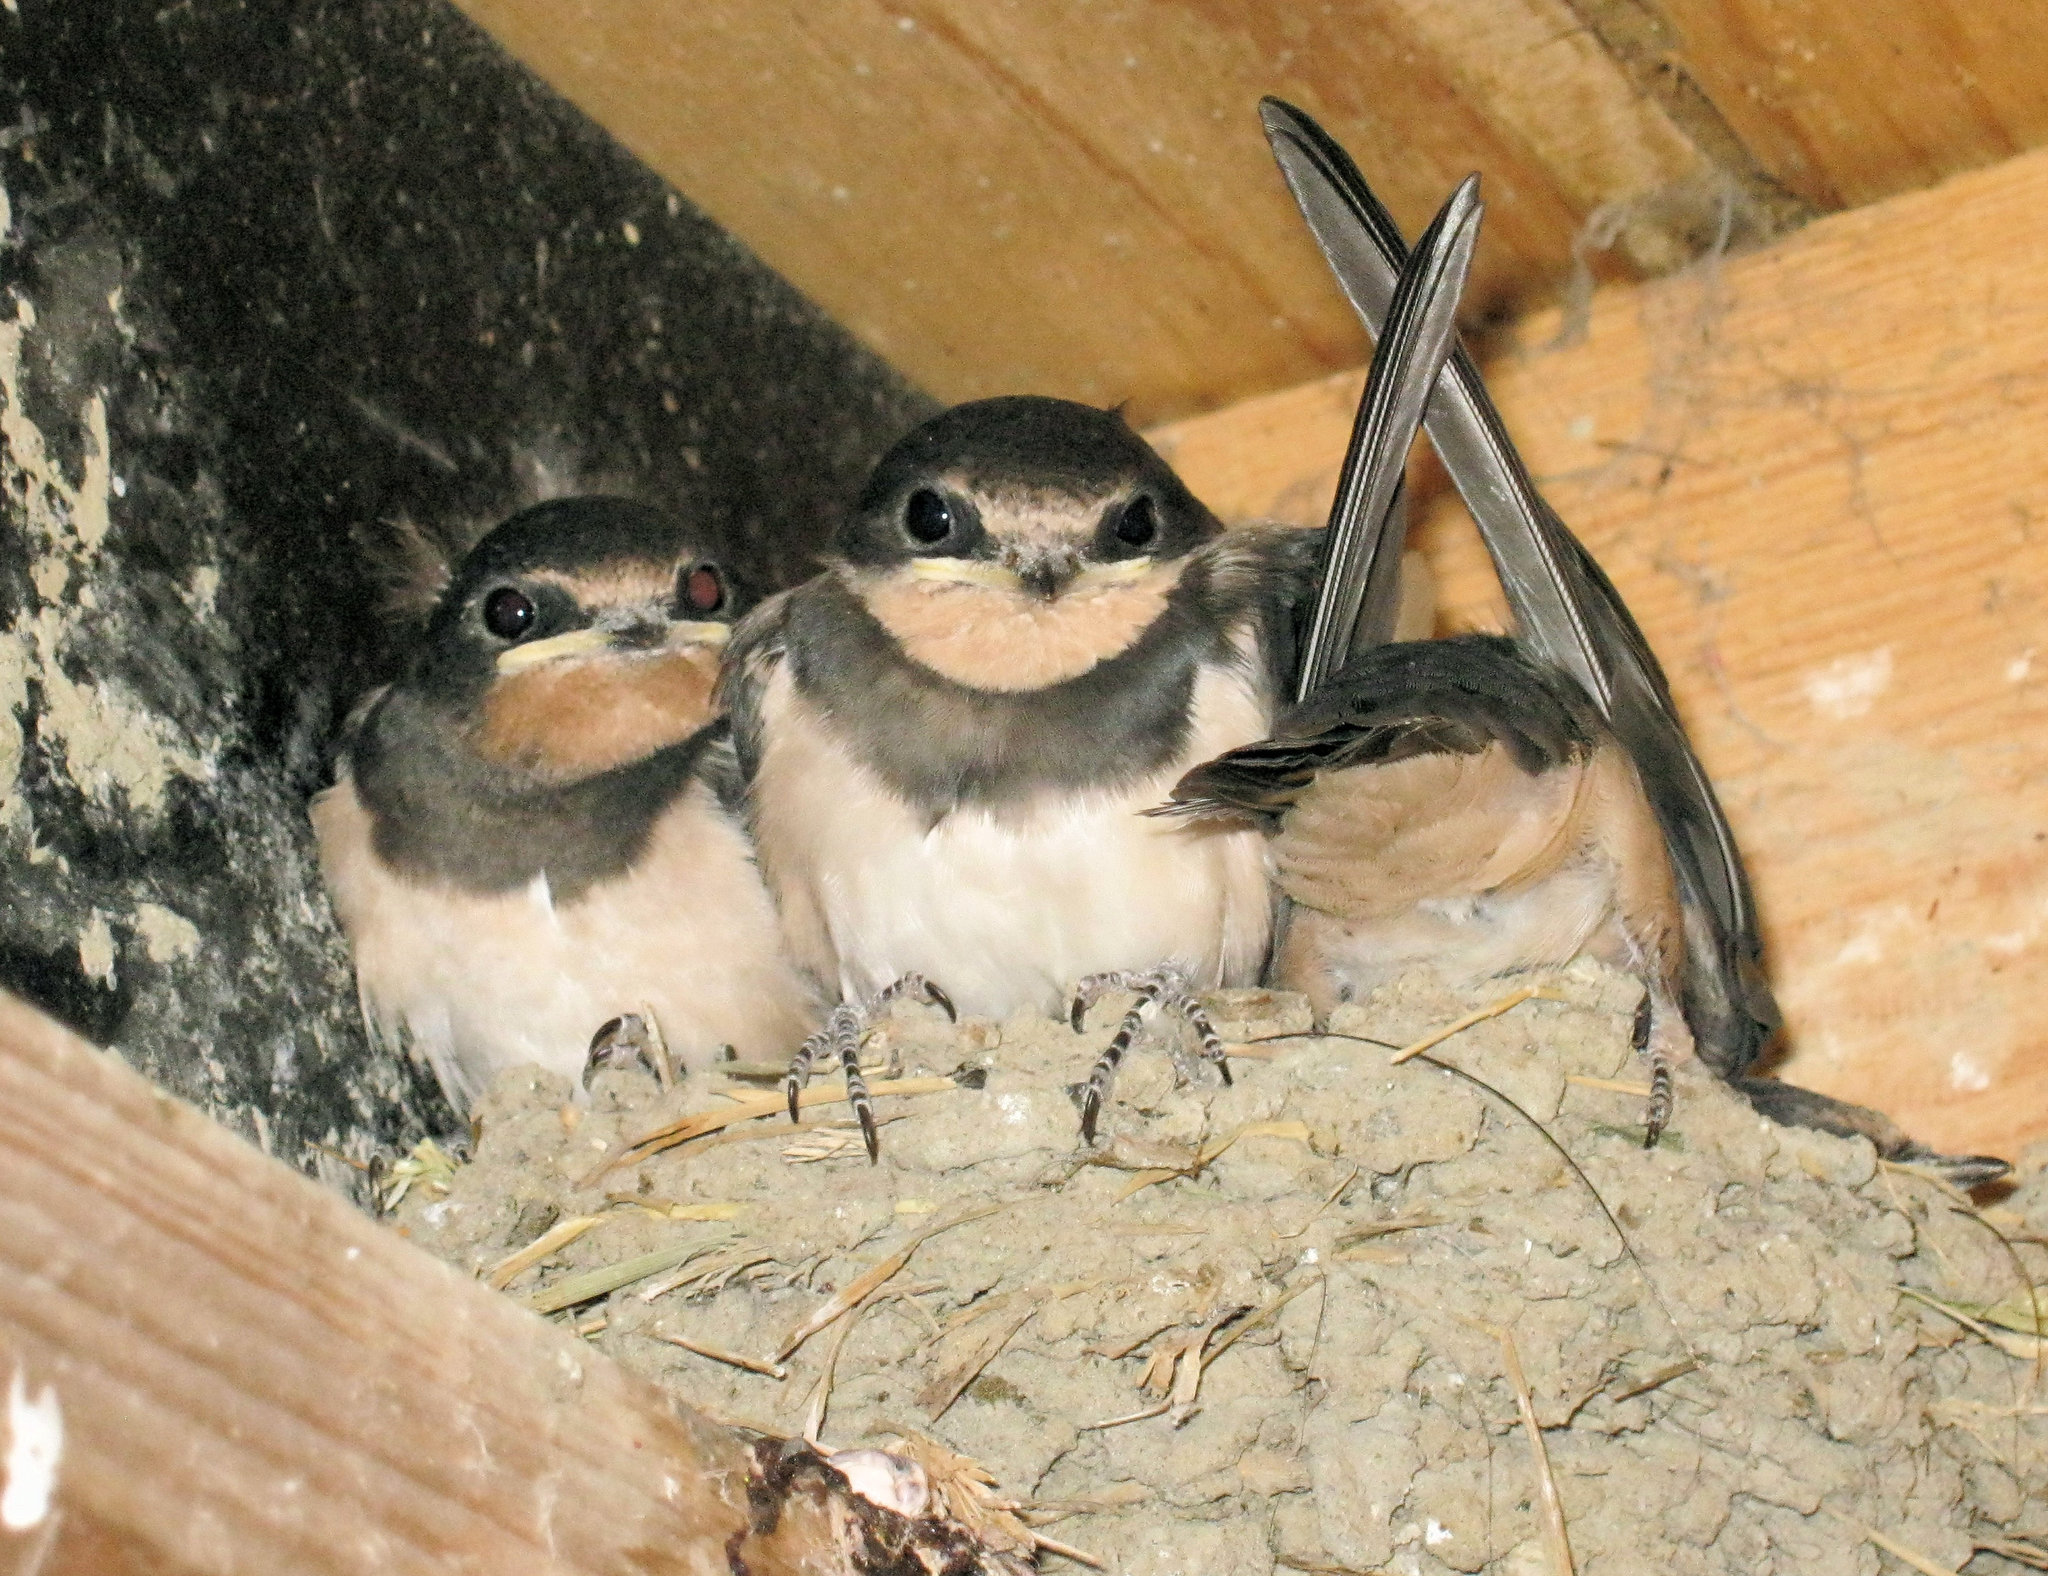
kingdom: Animalia
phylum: Chordata
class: Aves
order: Passeriformes
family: Hirundinidae
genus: Hirundo
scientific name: Hirundo rustica
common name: Barn swallow
